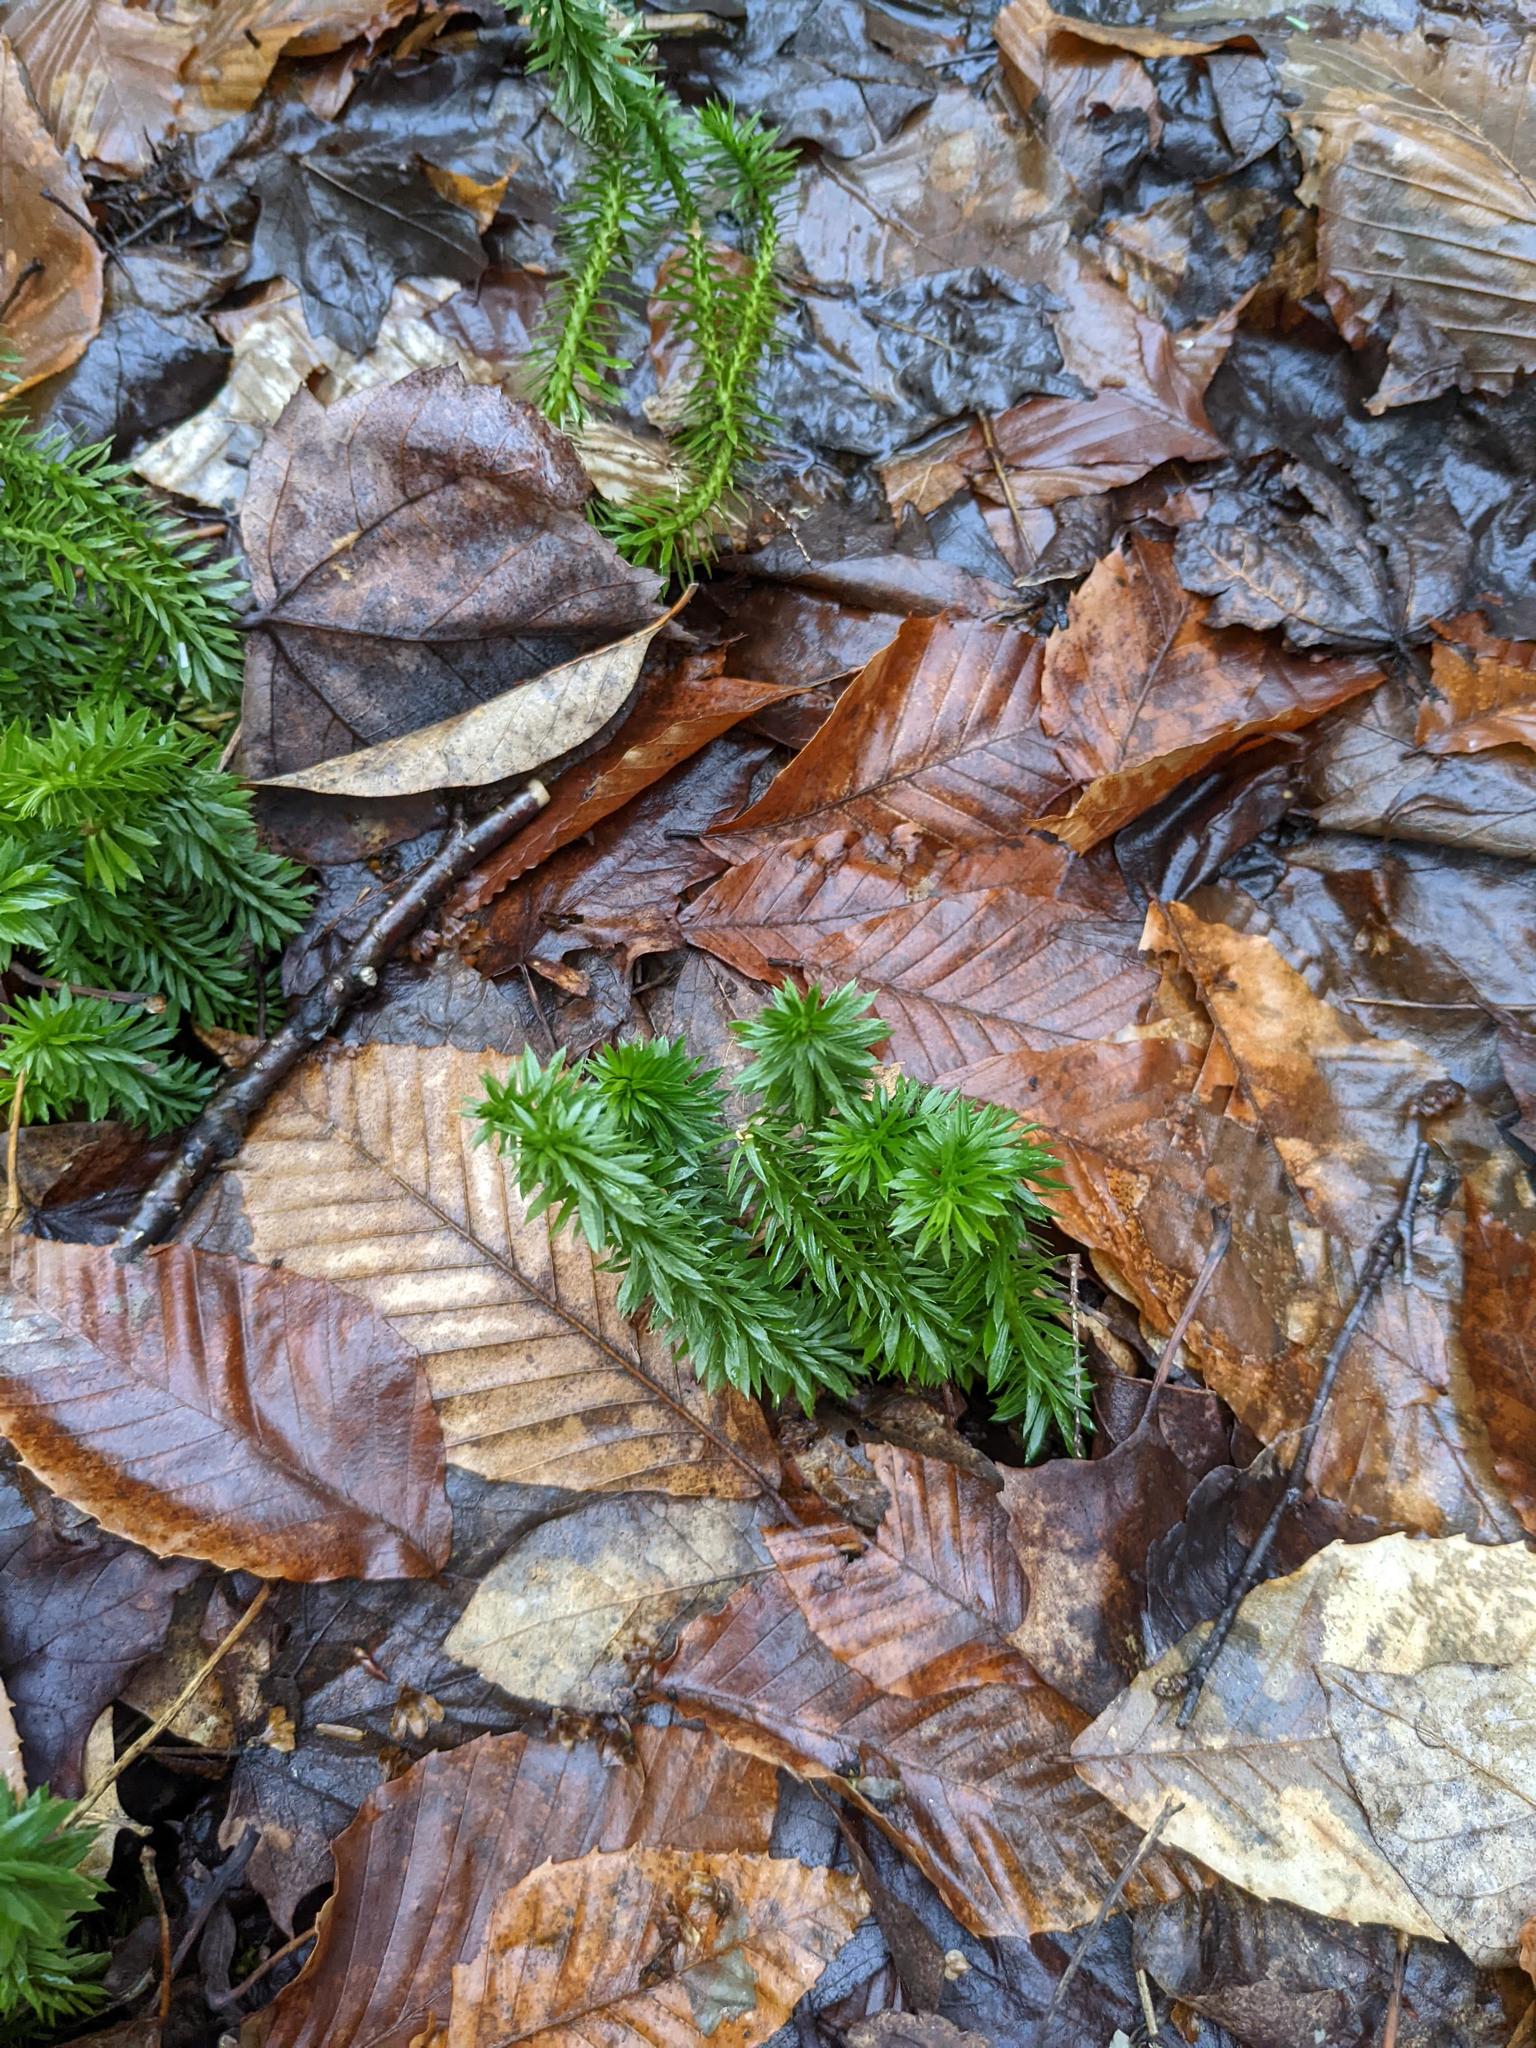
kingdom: Plantae
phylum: Tracheophyta
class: Lycopodiopsida
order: Lycopodiales
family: Lycopodiaceae
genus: Huperzia
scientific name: Huperzia lucidula
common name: Shining clubmoss
